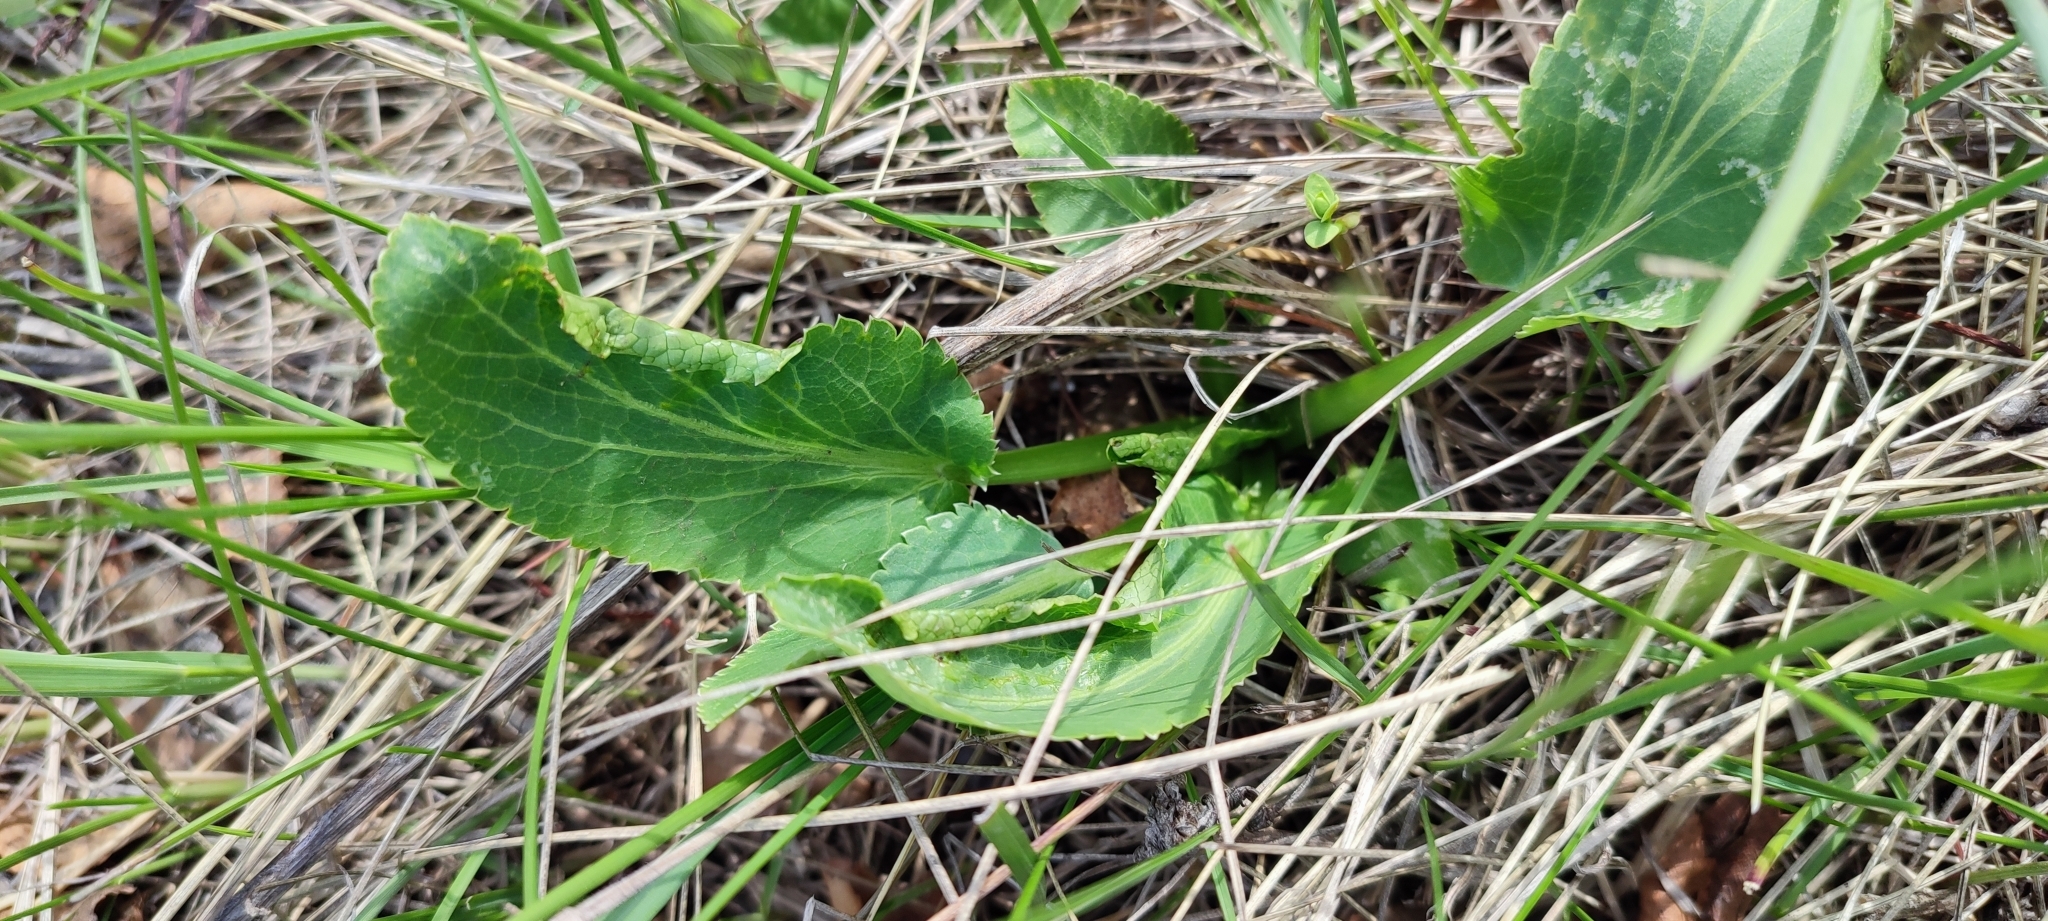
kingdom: Plantae
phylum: Tracheophyta
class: Magnoliopsida
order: Apiales
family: Apiaceae
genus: Eryngium
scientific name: Eryngium planum
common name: Blue eryngo
